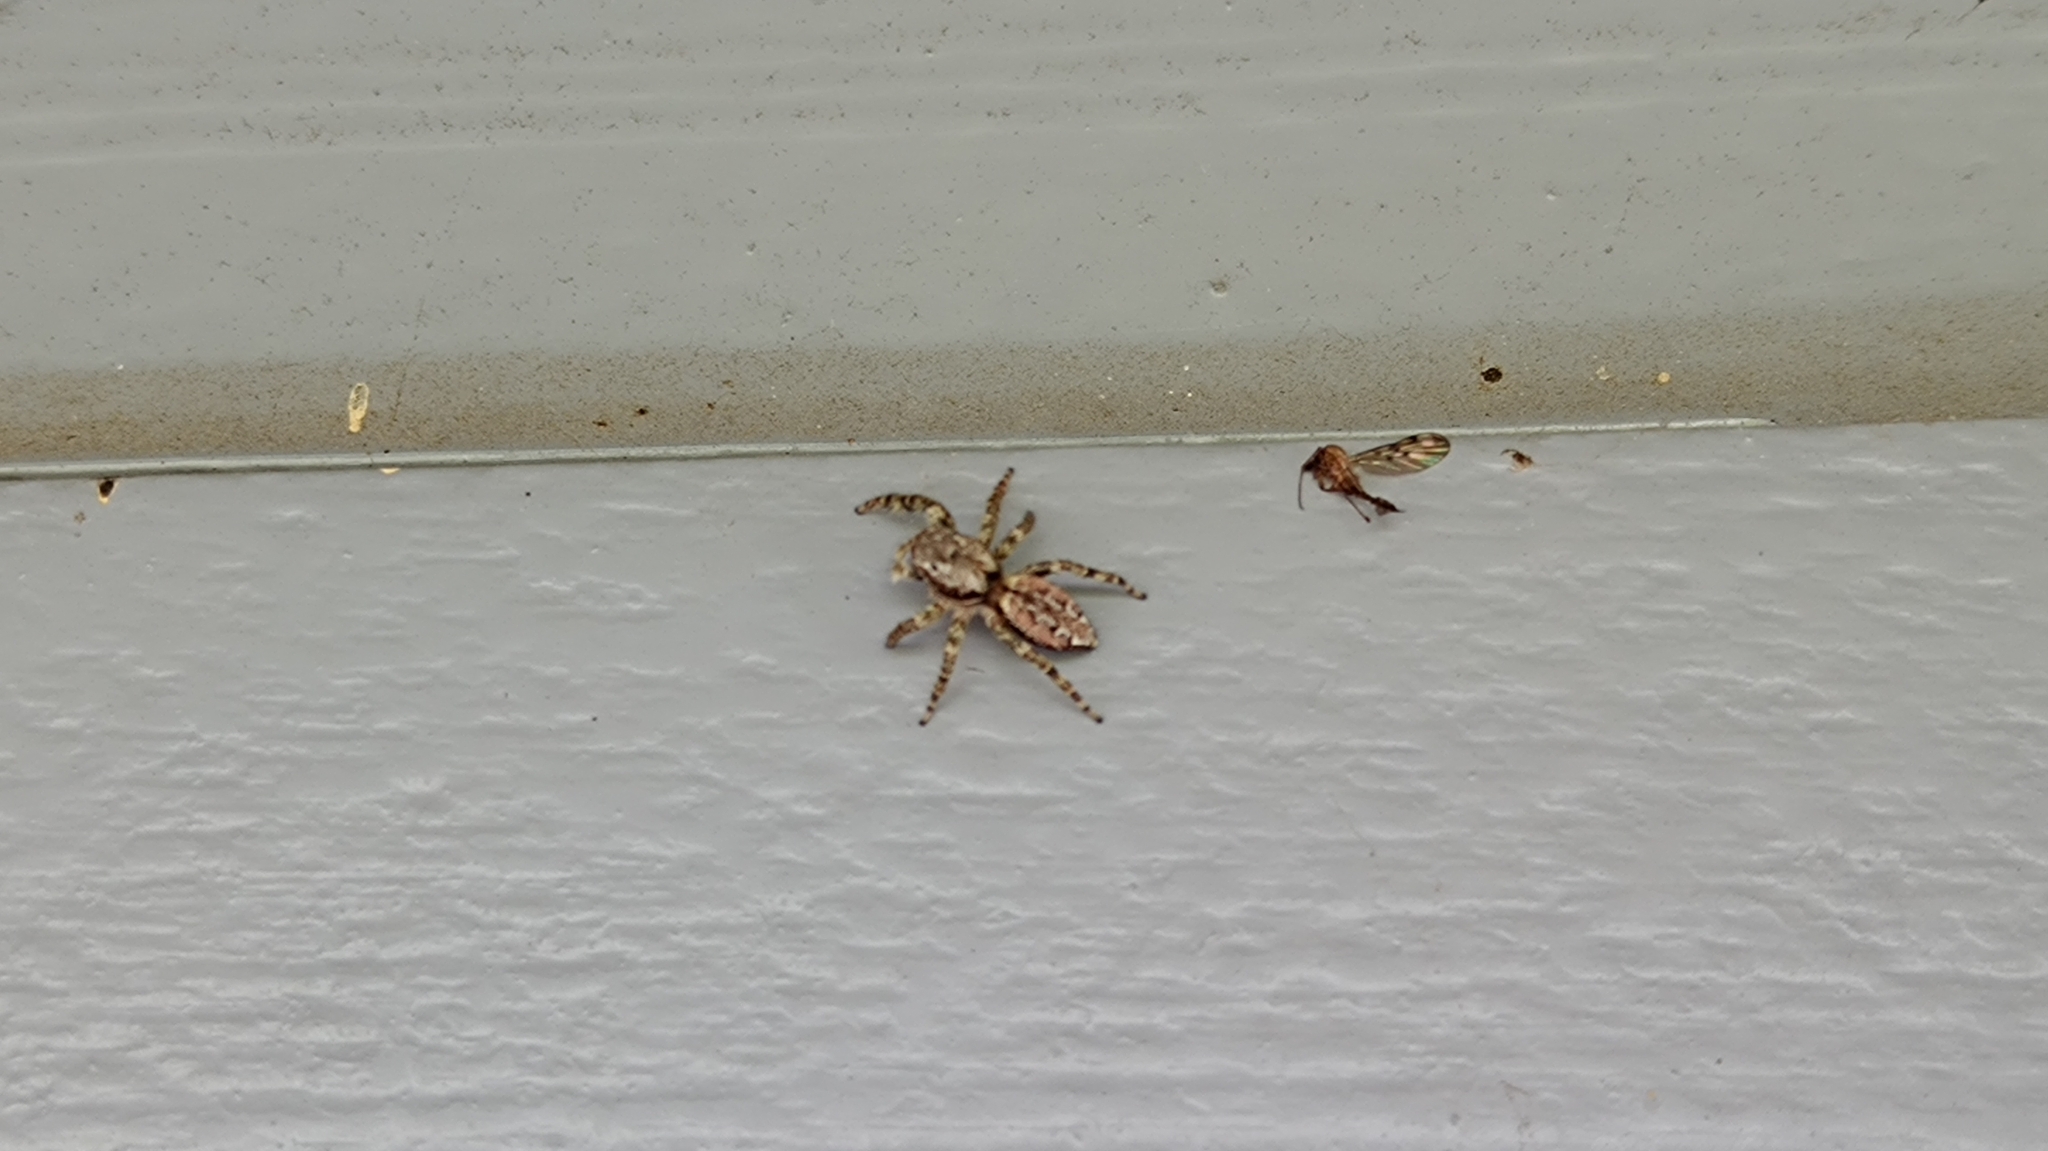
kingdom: Animalia
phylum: Arthropoda
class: Arachnida
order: Araneae
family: Salticidae
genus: Marpissa
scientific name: Marpissa muscosa
